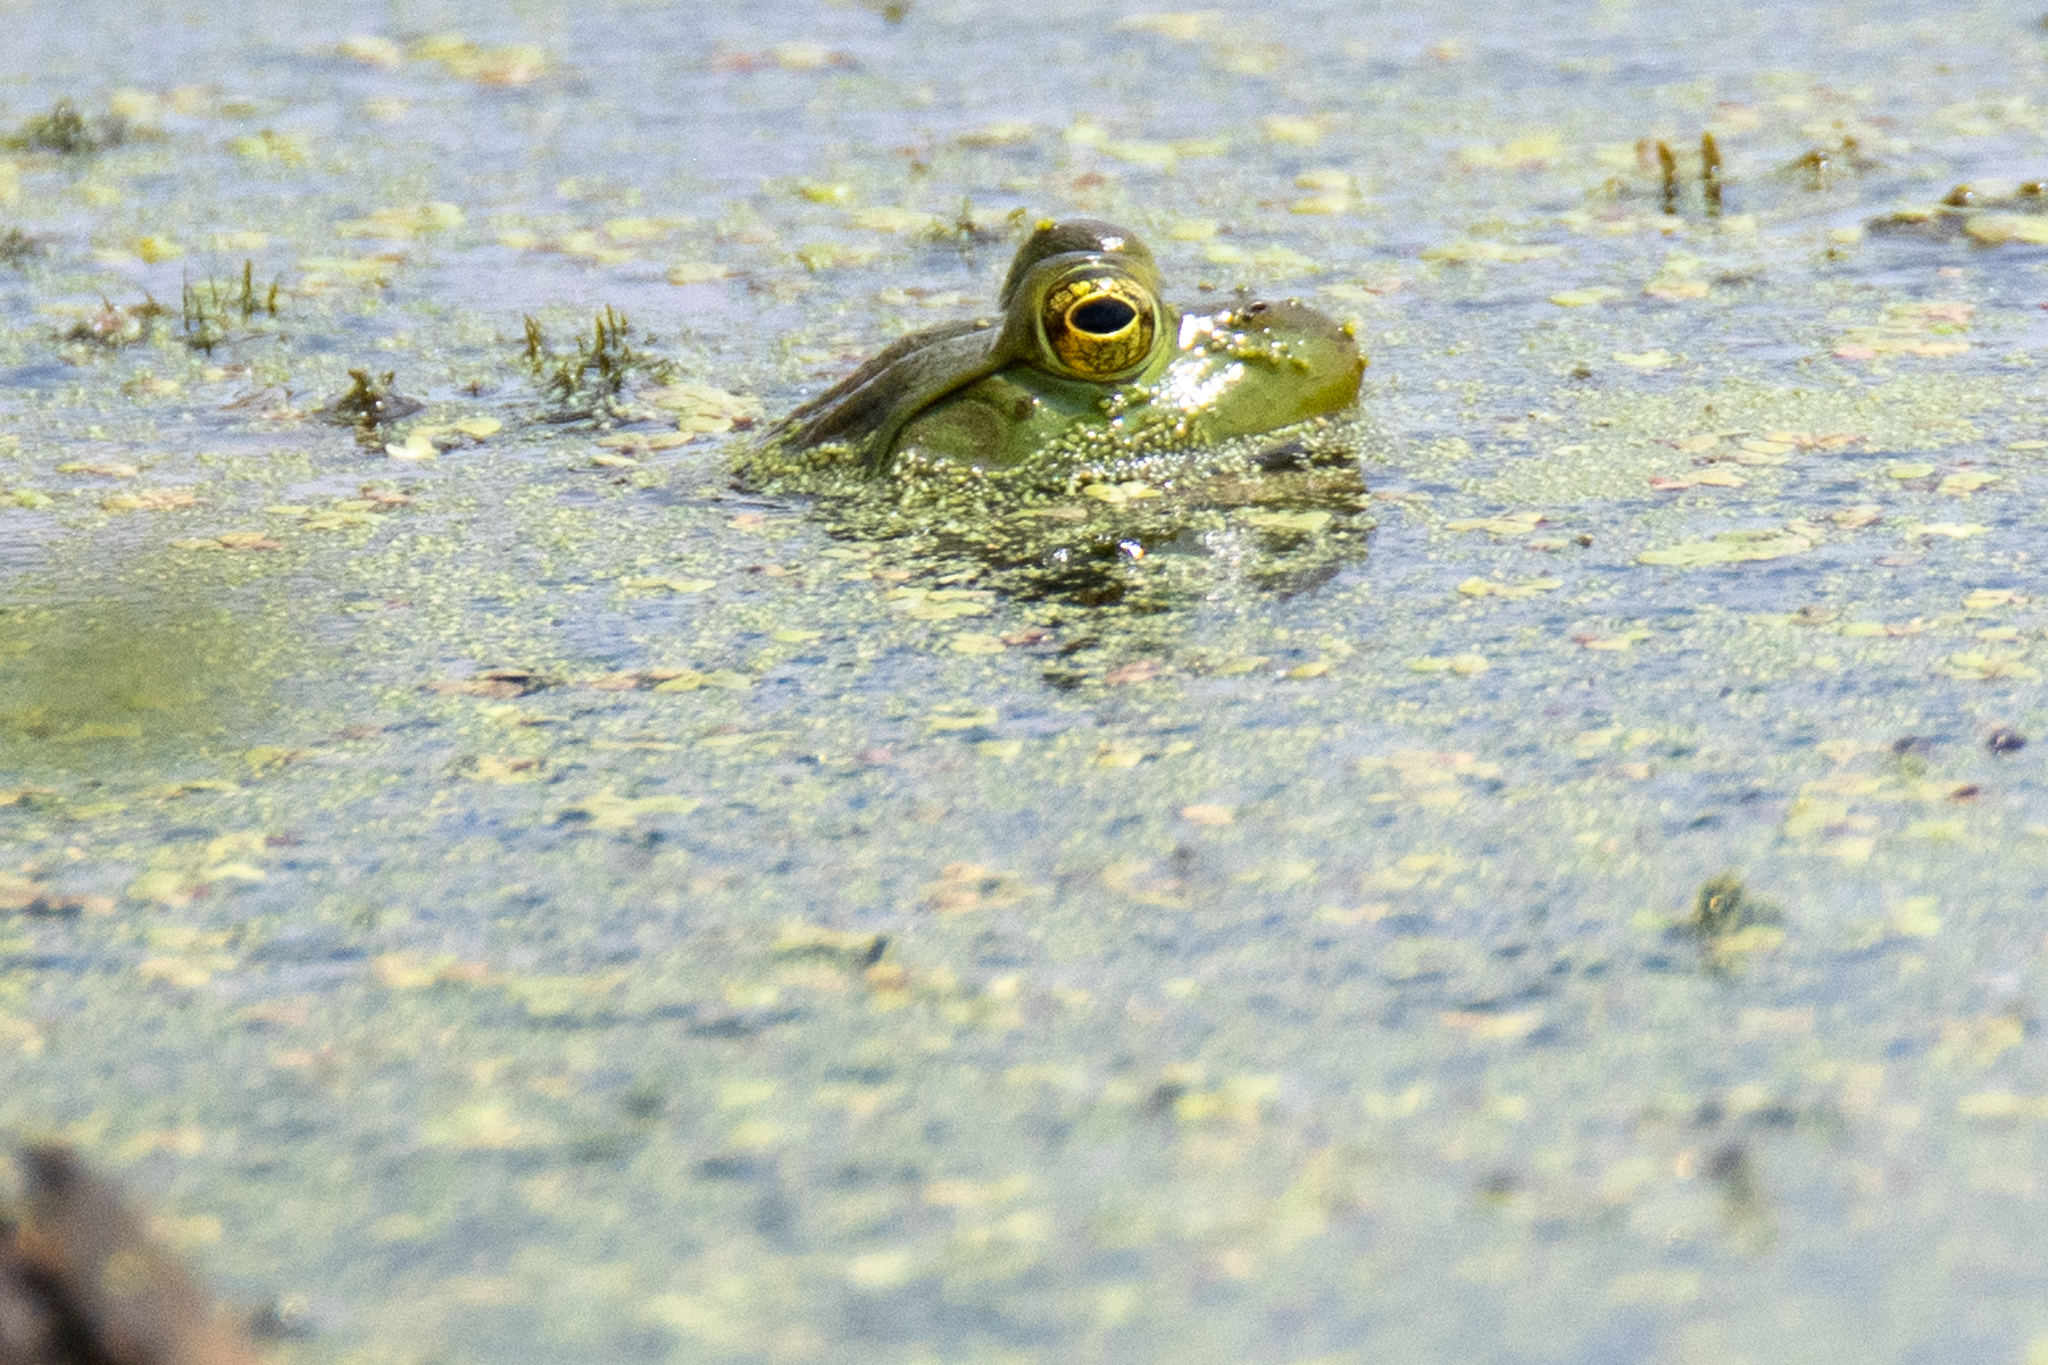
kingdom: Animalia
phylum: Chordata
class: Amphibia
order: Anura
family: Ranidae
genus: Lithobates
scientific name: Lithobates catesbeianus
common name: American bullfrog
